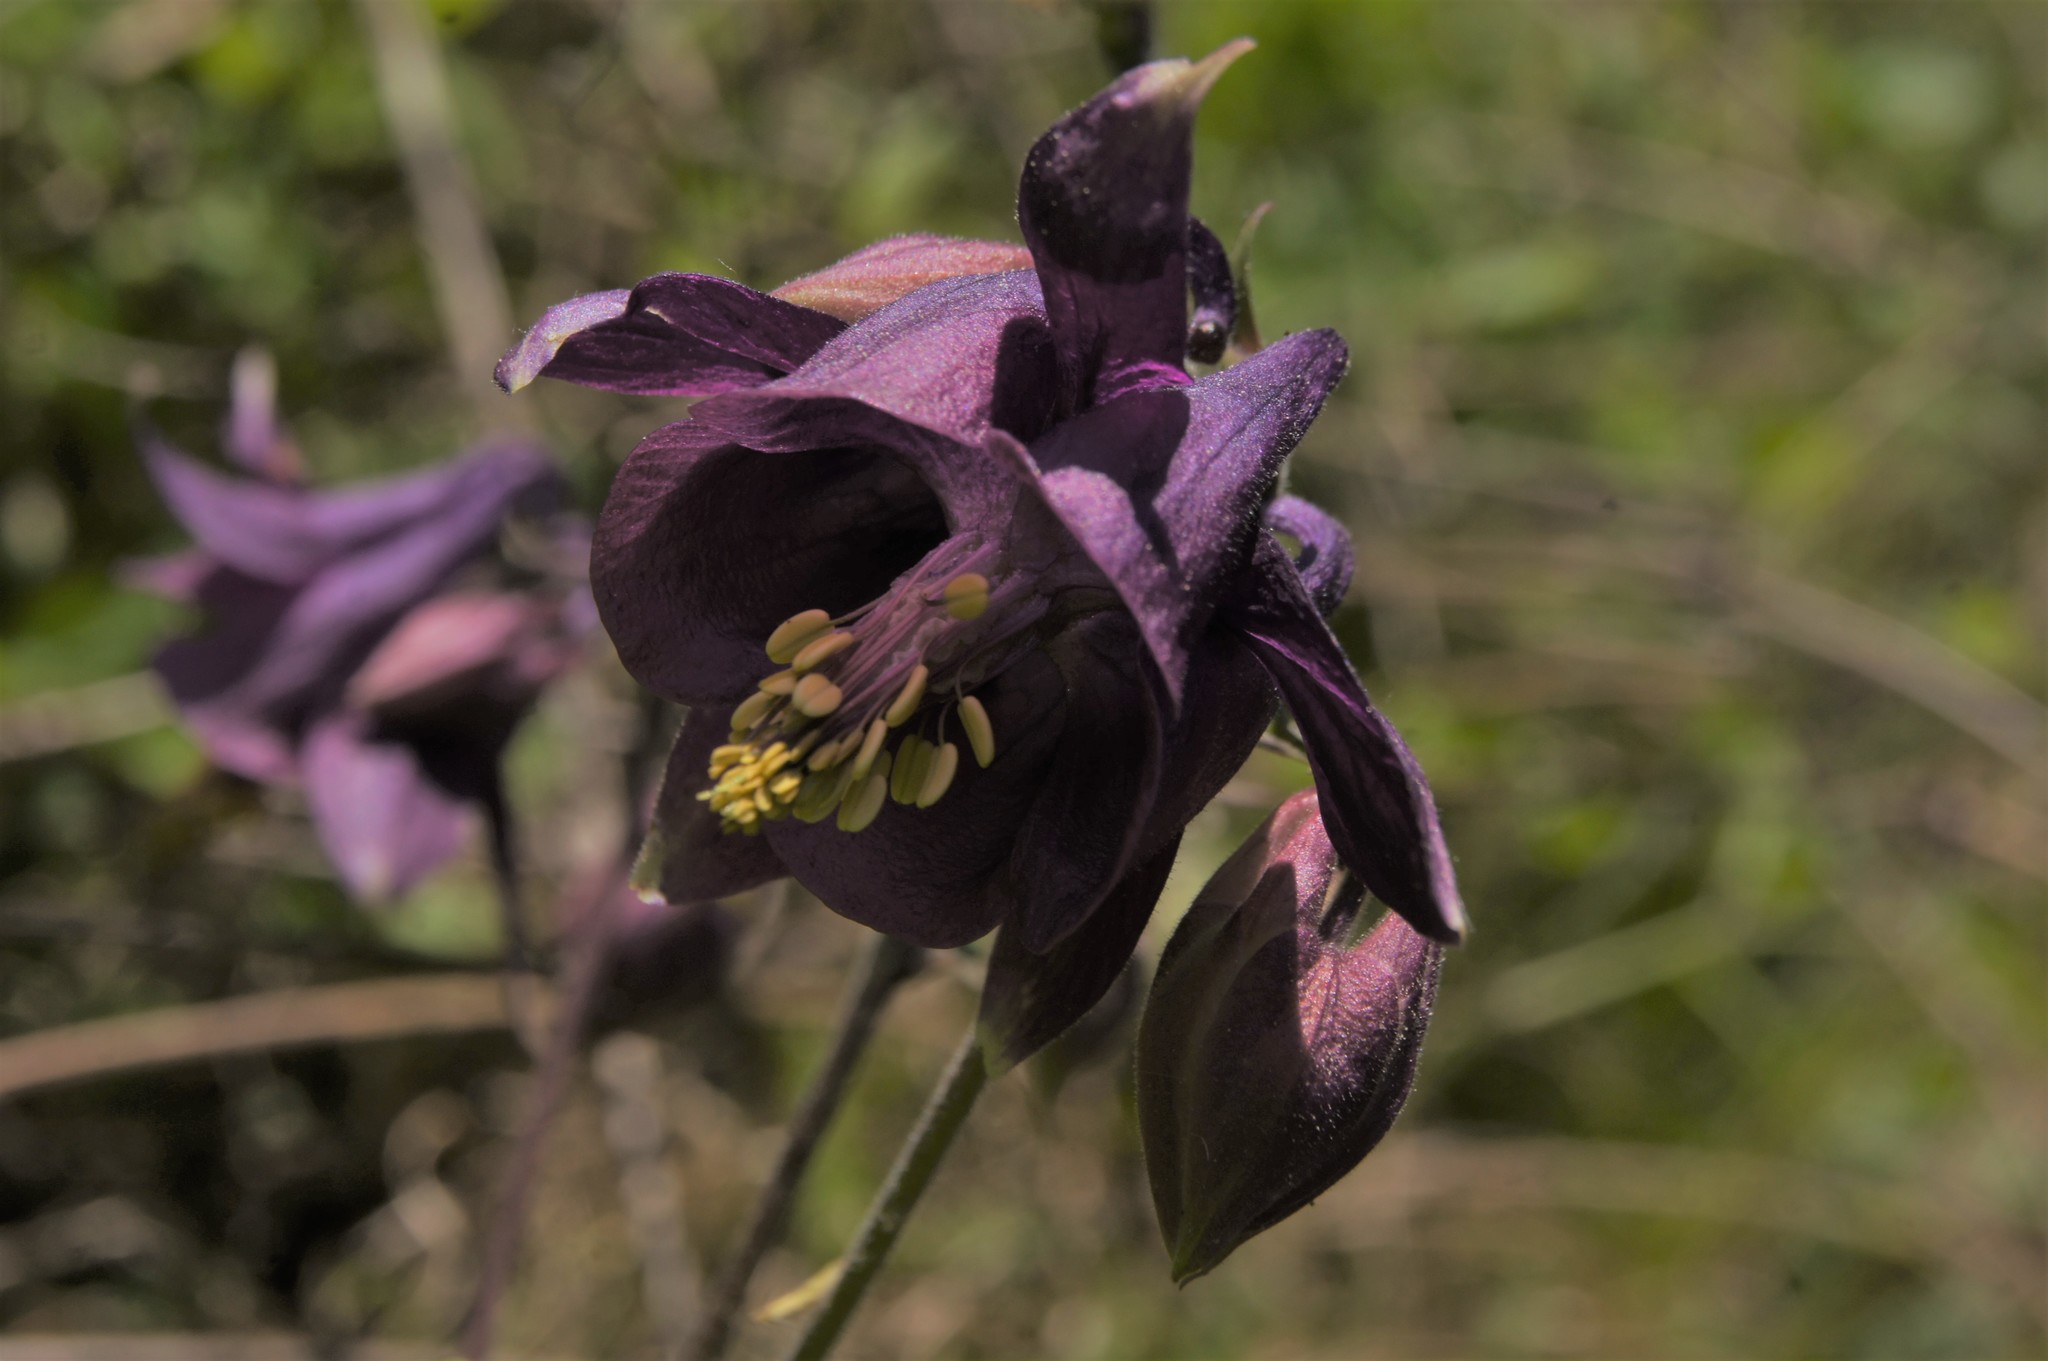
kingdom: Plantae
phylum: Tracheophyta
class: Magnoliopsida
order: Ranunculales
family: Ranunculaceae
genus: Aquilegia
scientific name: Aquilegia atrata
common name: Dark columbine
